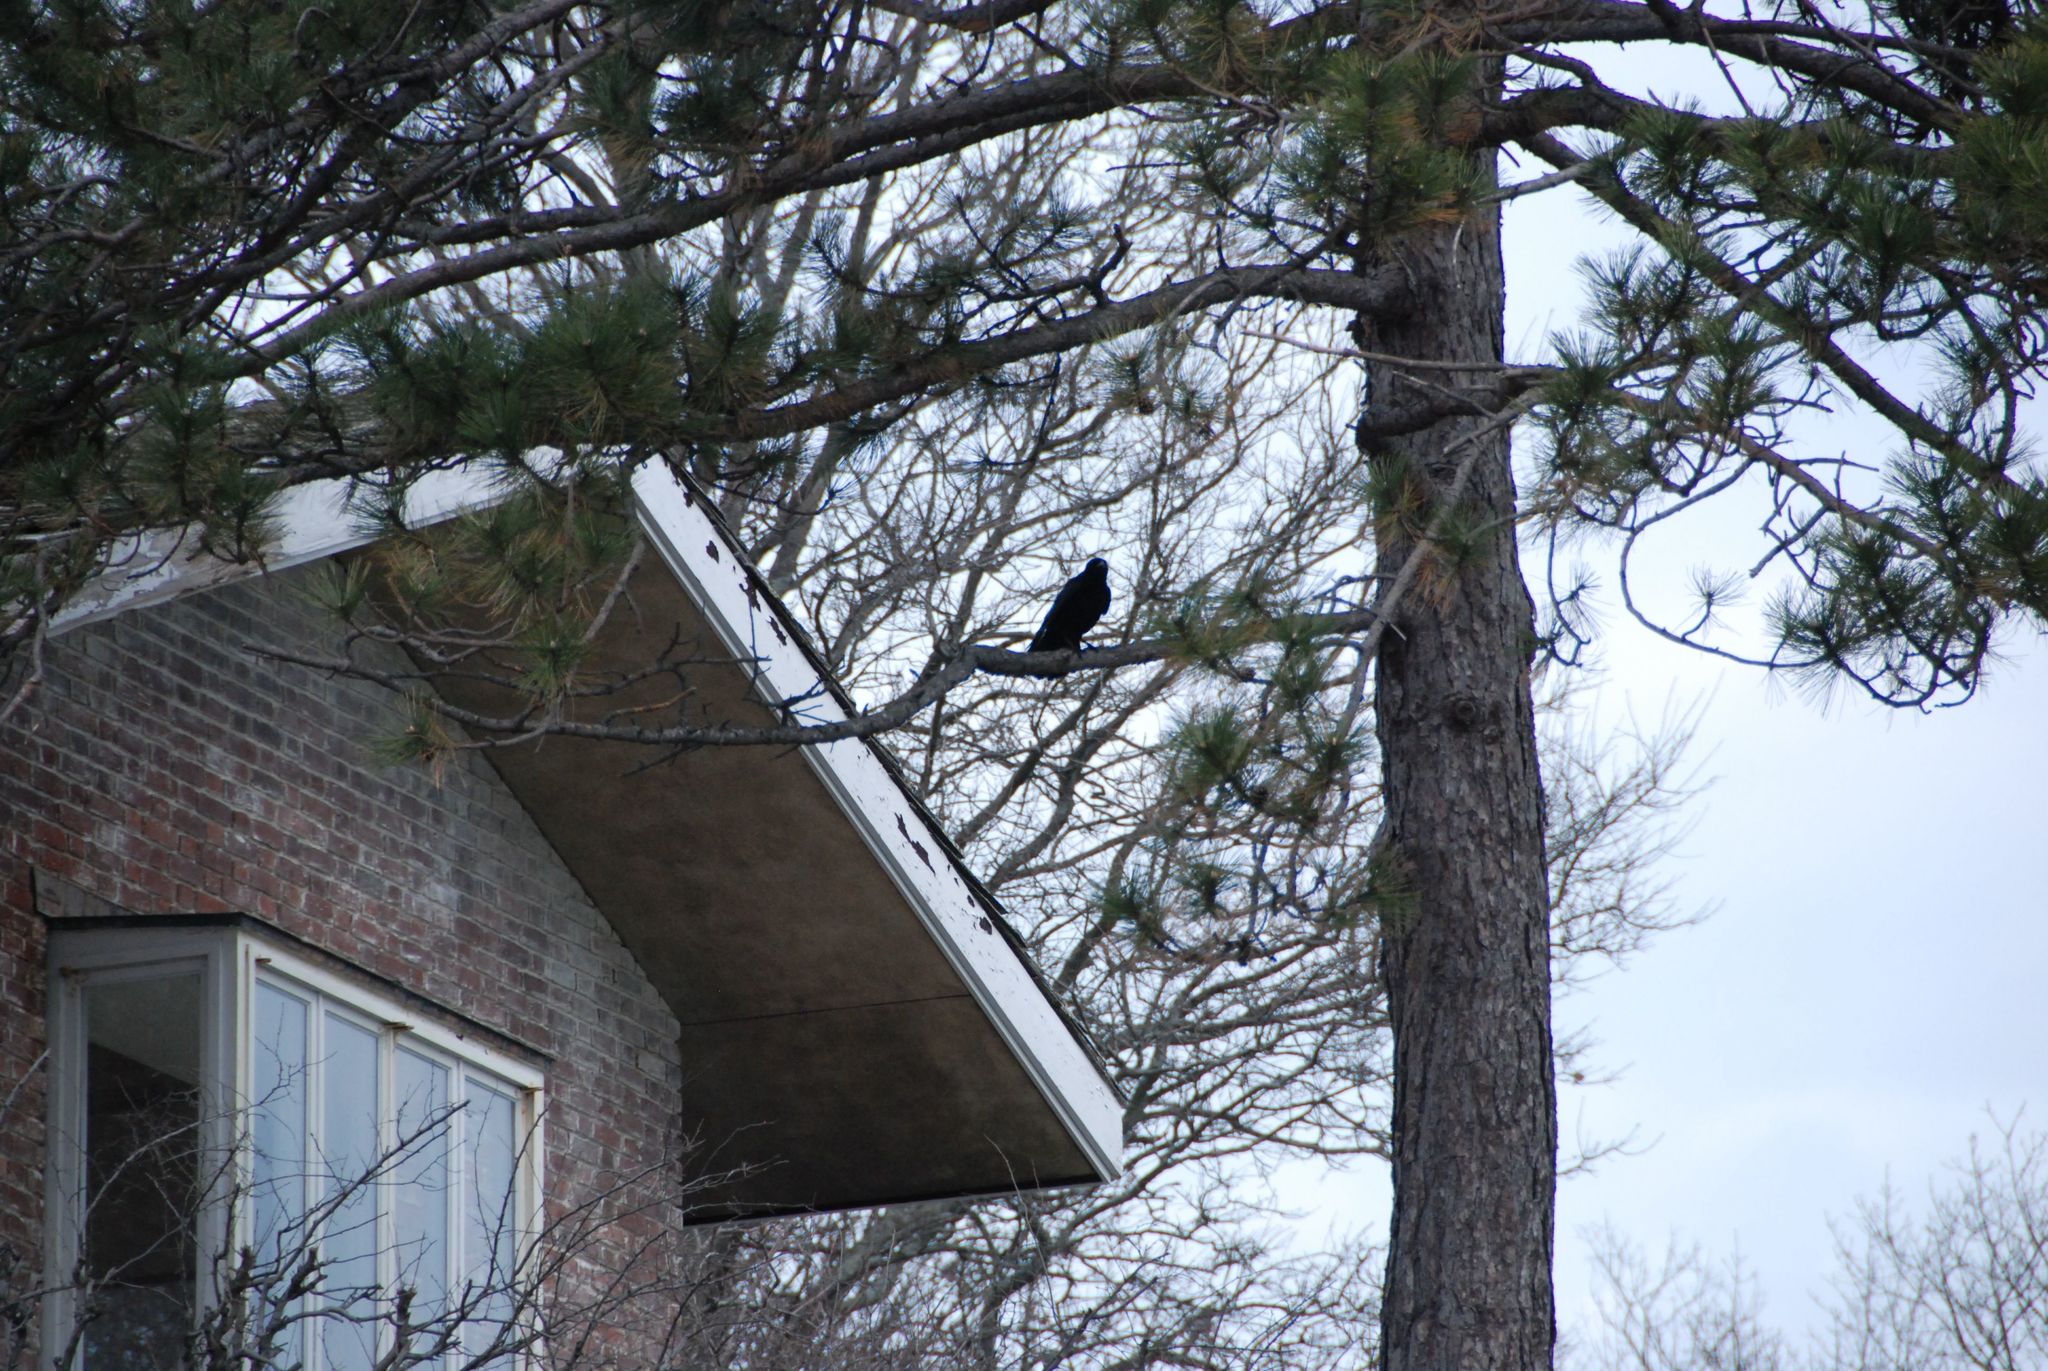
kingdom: Animalia
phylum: Chordata
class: Aves
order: Passeriformes
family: Corvidae
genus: Corvus
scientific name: Corvus brachyrhynchos
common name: American crow
